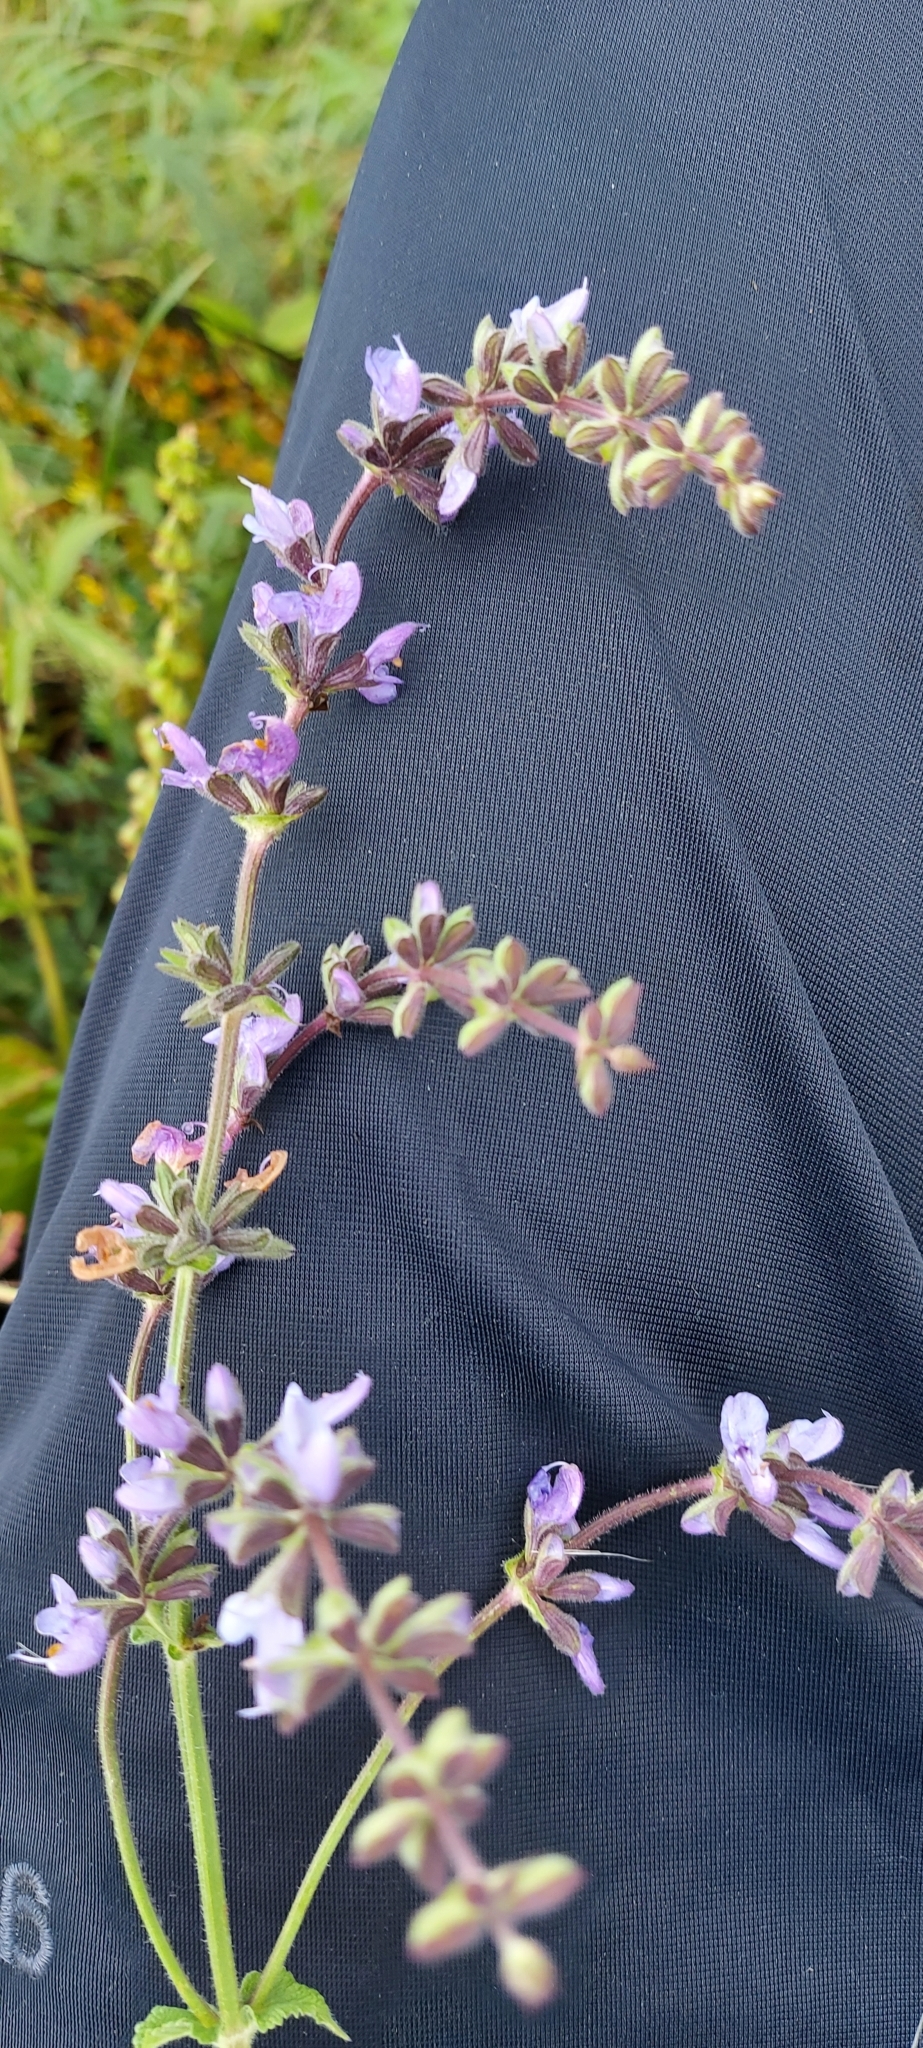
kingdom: Plantae
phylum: Tracheophyta
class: Magnoliopsida
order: Lamiales
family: Lamiaceae
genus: Salvia
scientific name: Salvia dumetorum
